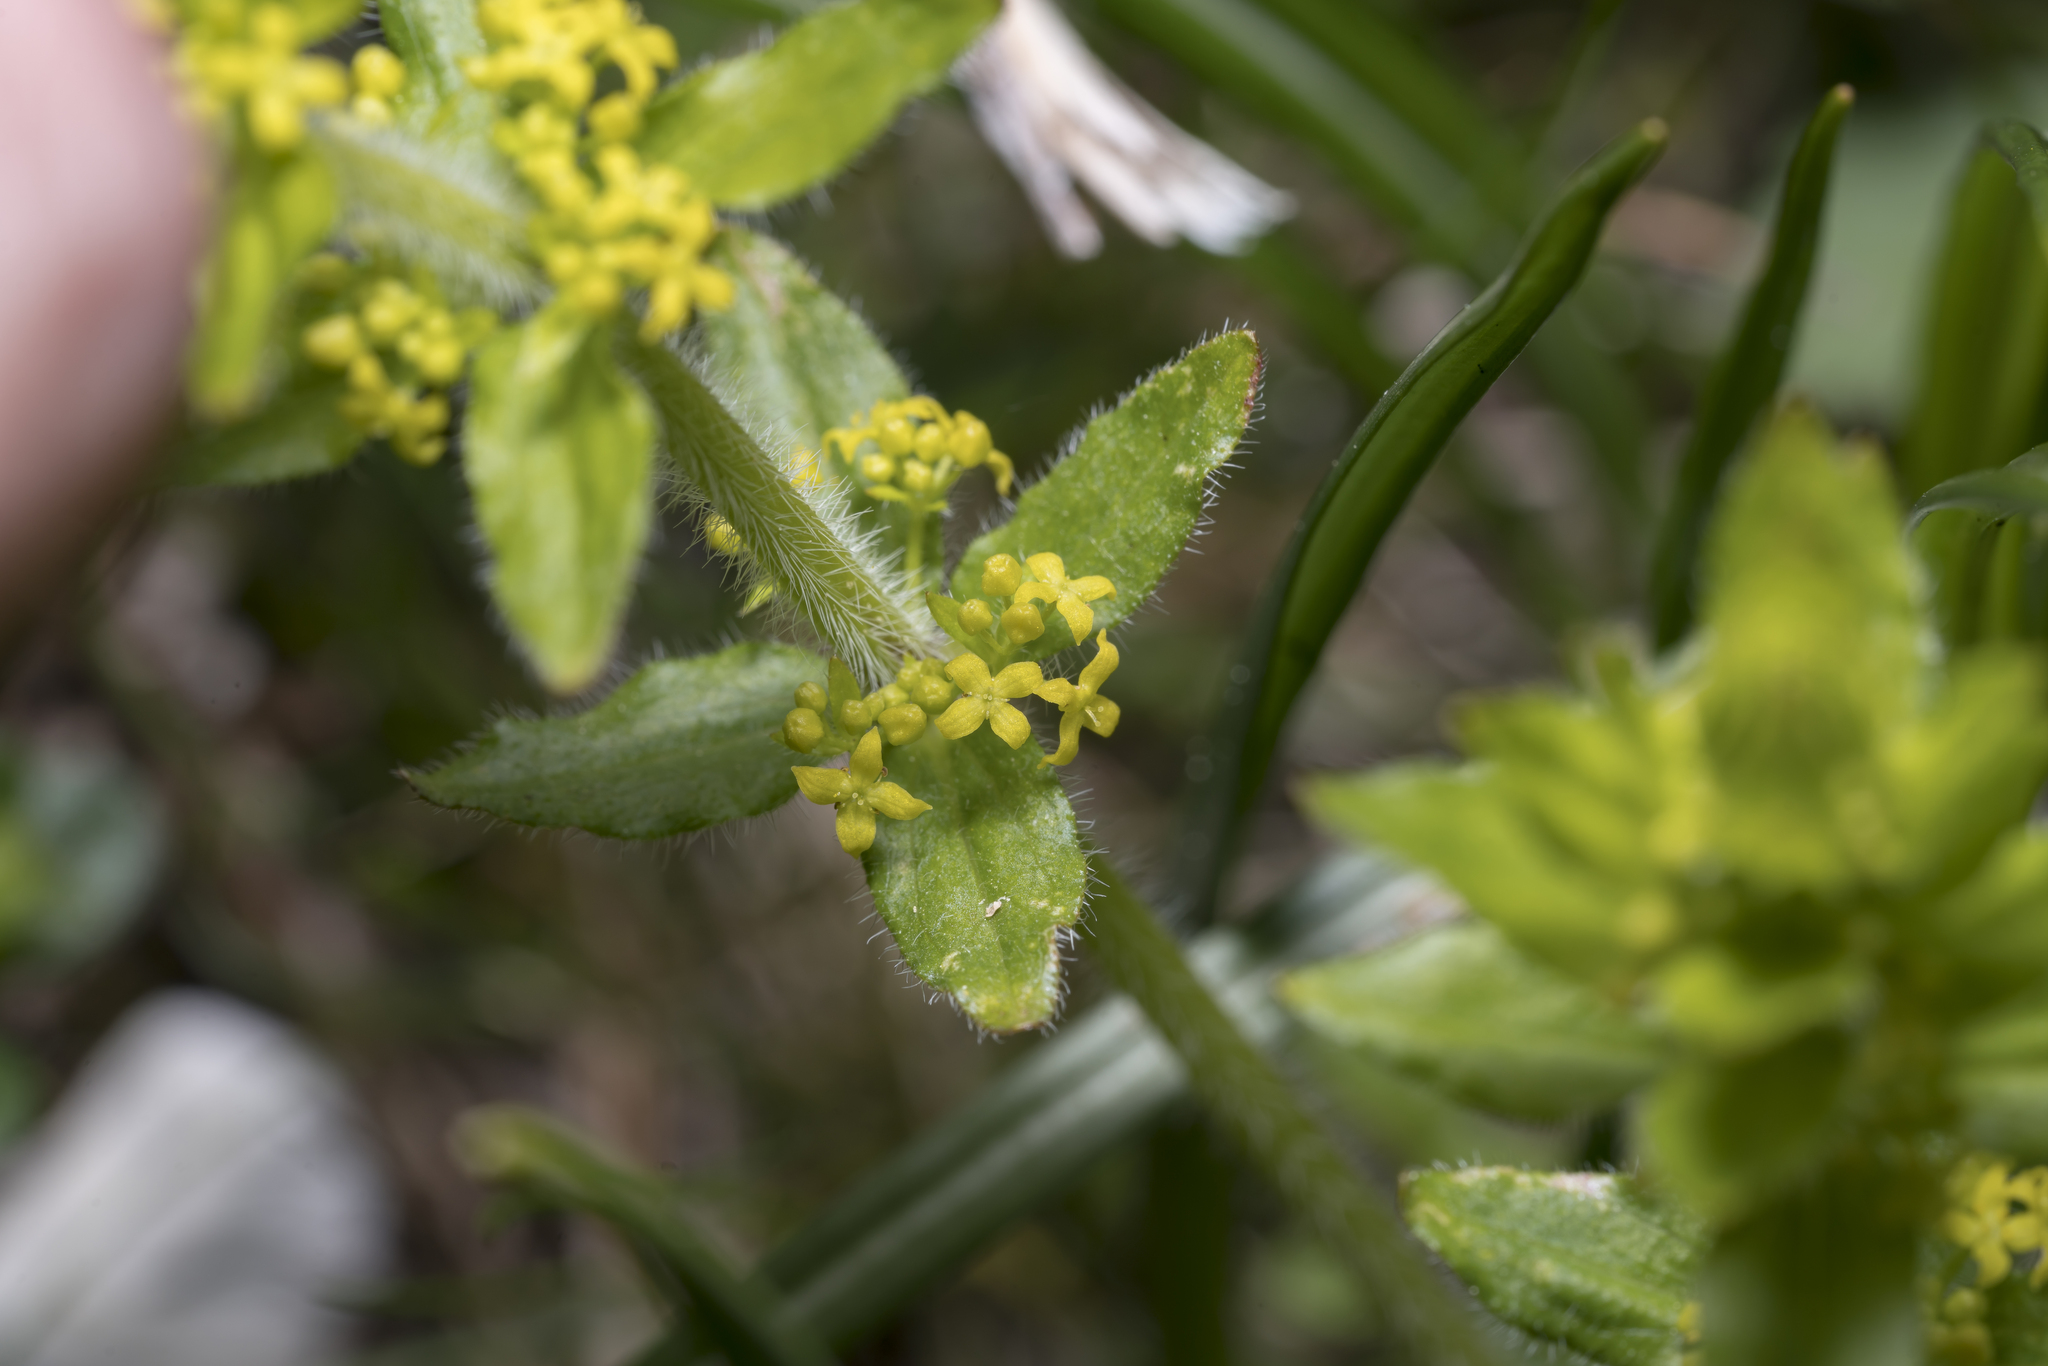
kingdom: Plantae
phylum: Tracheophyta
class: Magnoliopsida
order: Gentianales
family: Rubiaceae
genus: Cruciata
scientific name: Cruciata laevipes
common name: Crosswort
